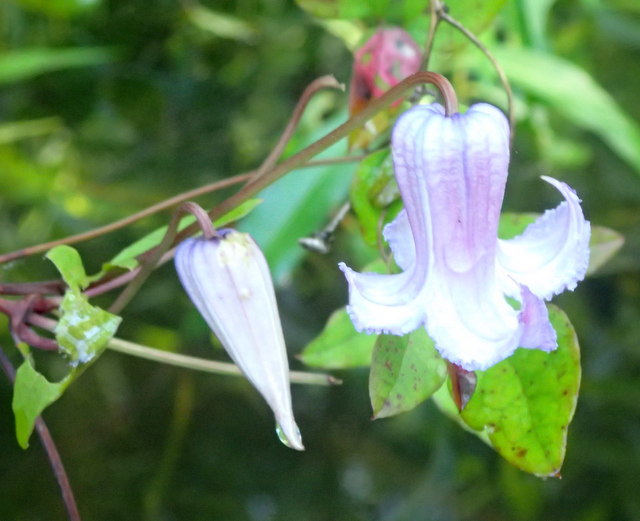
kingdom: Plantae
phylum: Tracheophyta
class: Magnoliopsida
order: Ranunculales
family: Ranunculaceae
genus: Clematis
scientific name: Clematis crispa
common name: Curly clematis
